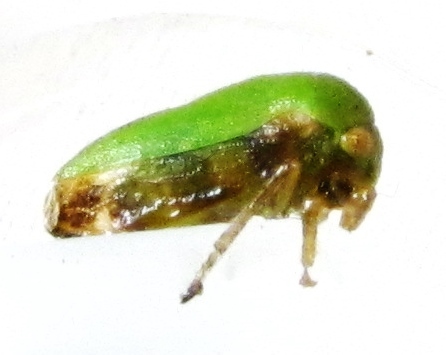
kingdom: Animalia
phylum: Arthropoda
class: Insecta
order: Hemiptera
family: Membracidae
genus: Ophiderma
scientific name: Ophiderma evelyna
